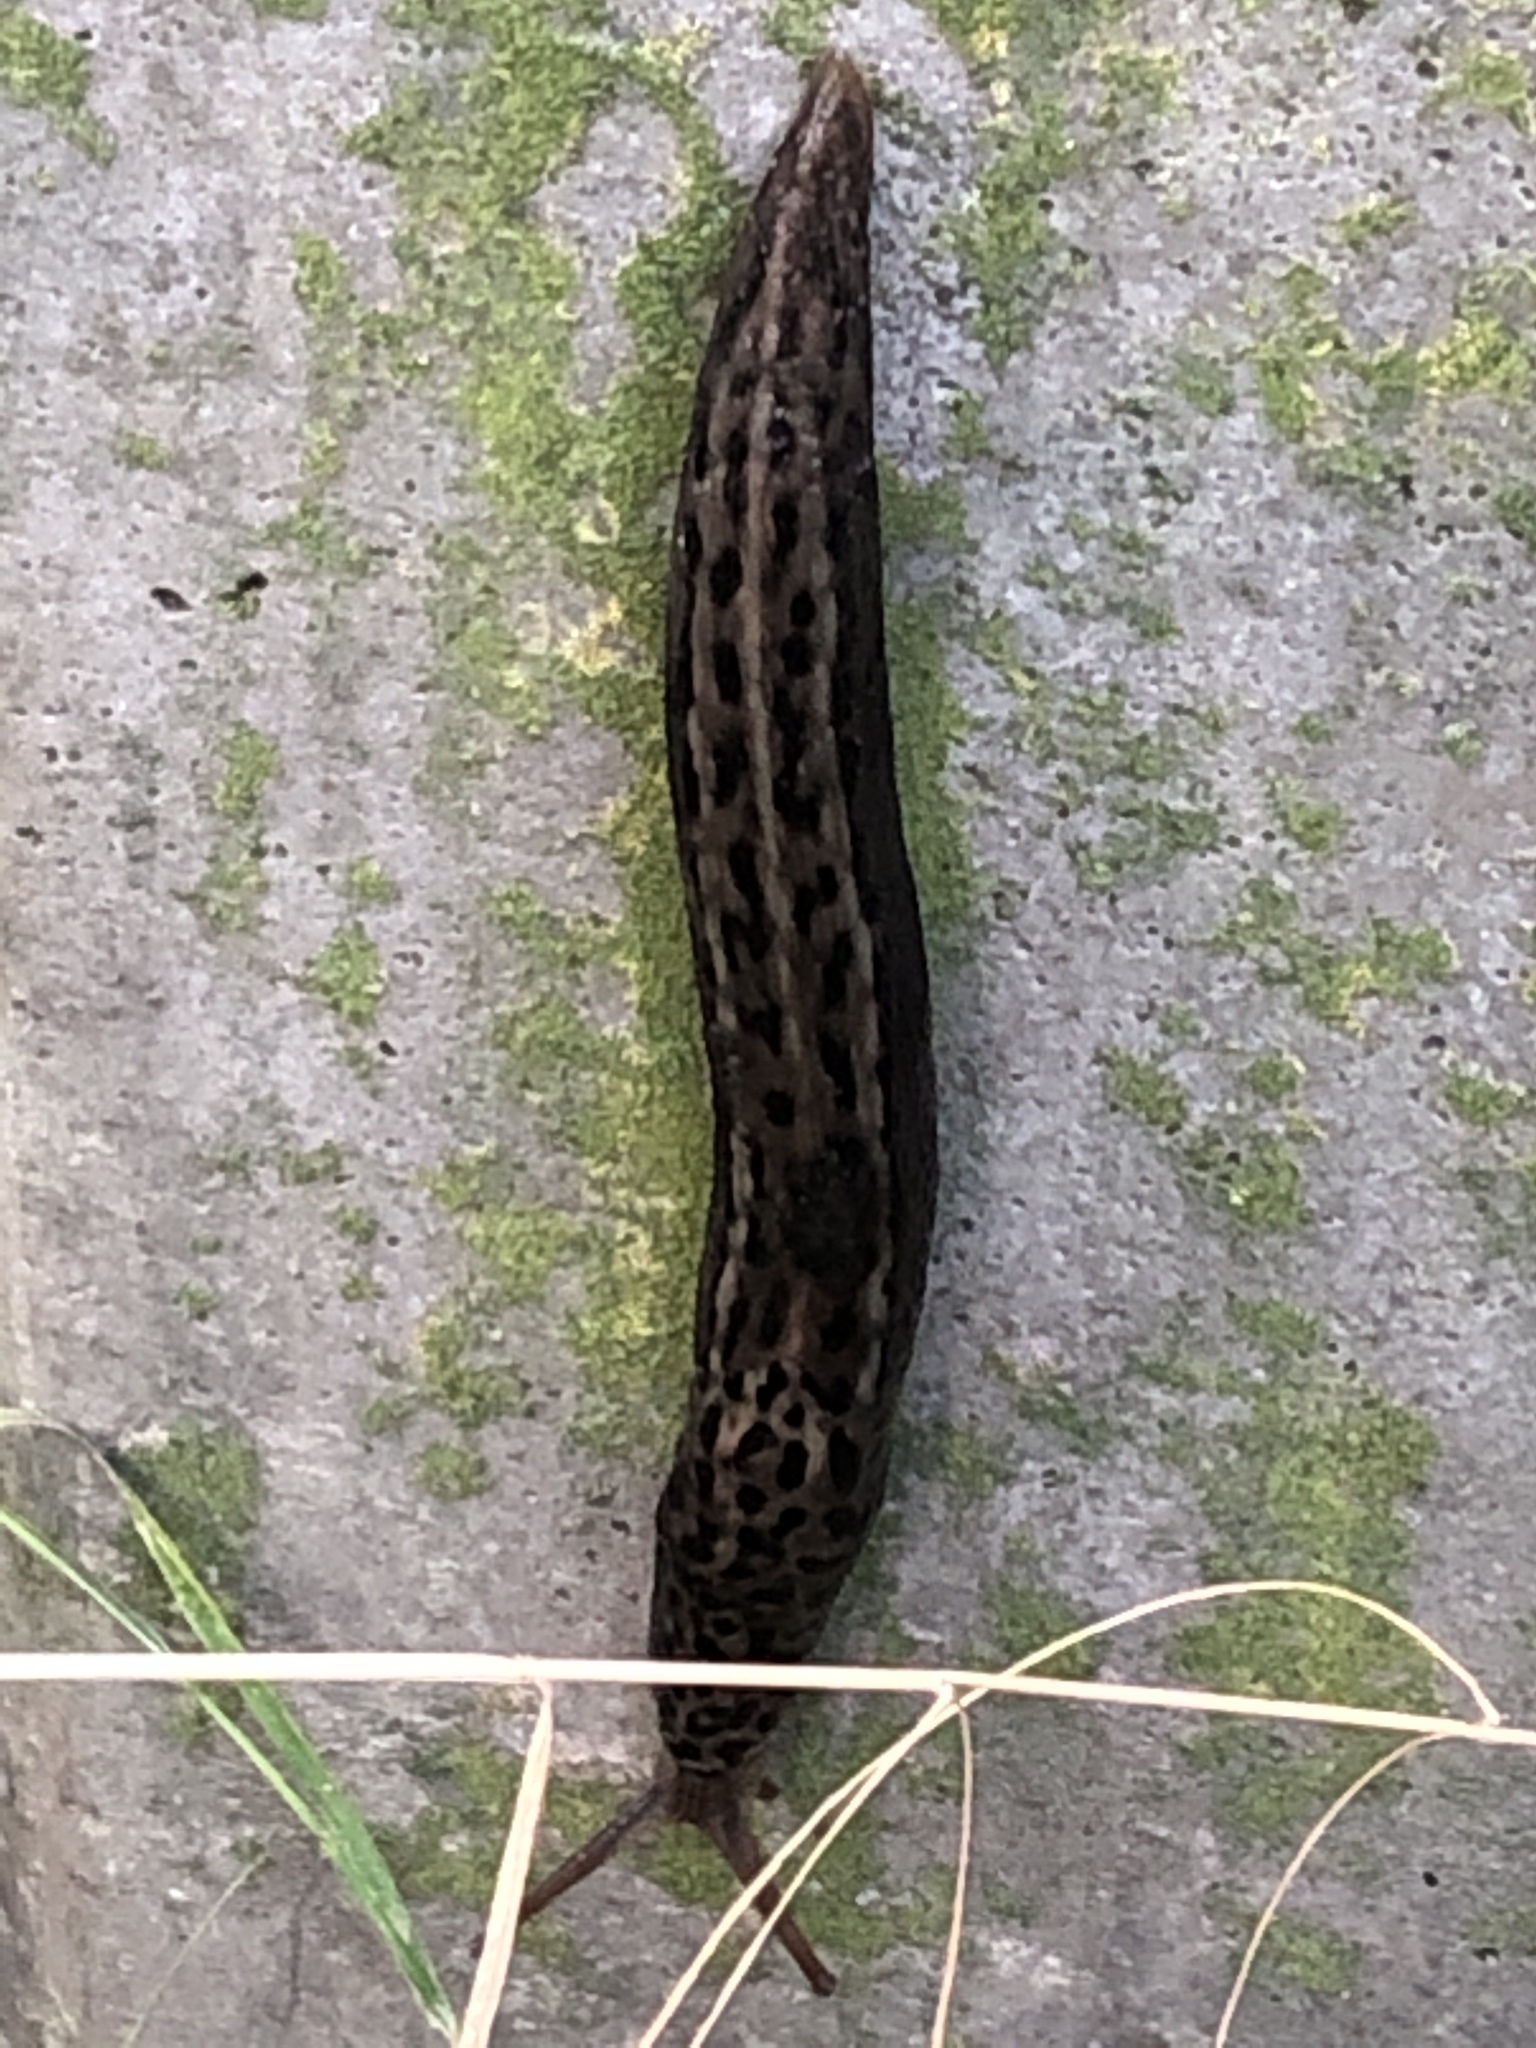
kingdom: Animalia
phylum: Mollusca
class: Gastropoda
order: Stylommatophora
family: Limacidae
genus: Limax
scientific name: Limax maximus
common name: Great grey slug
